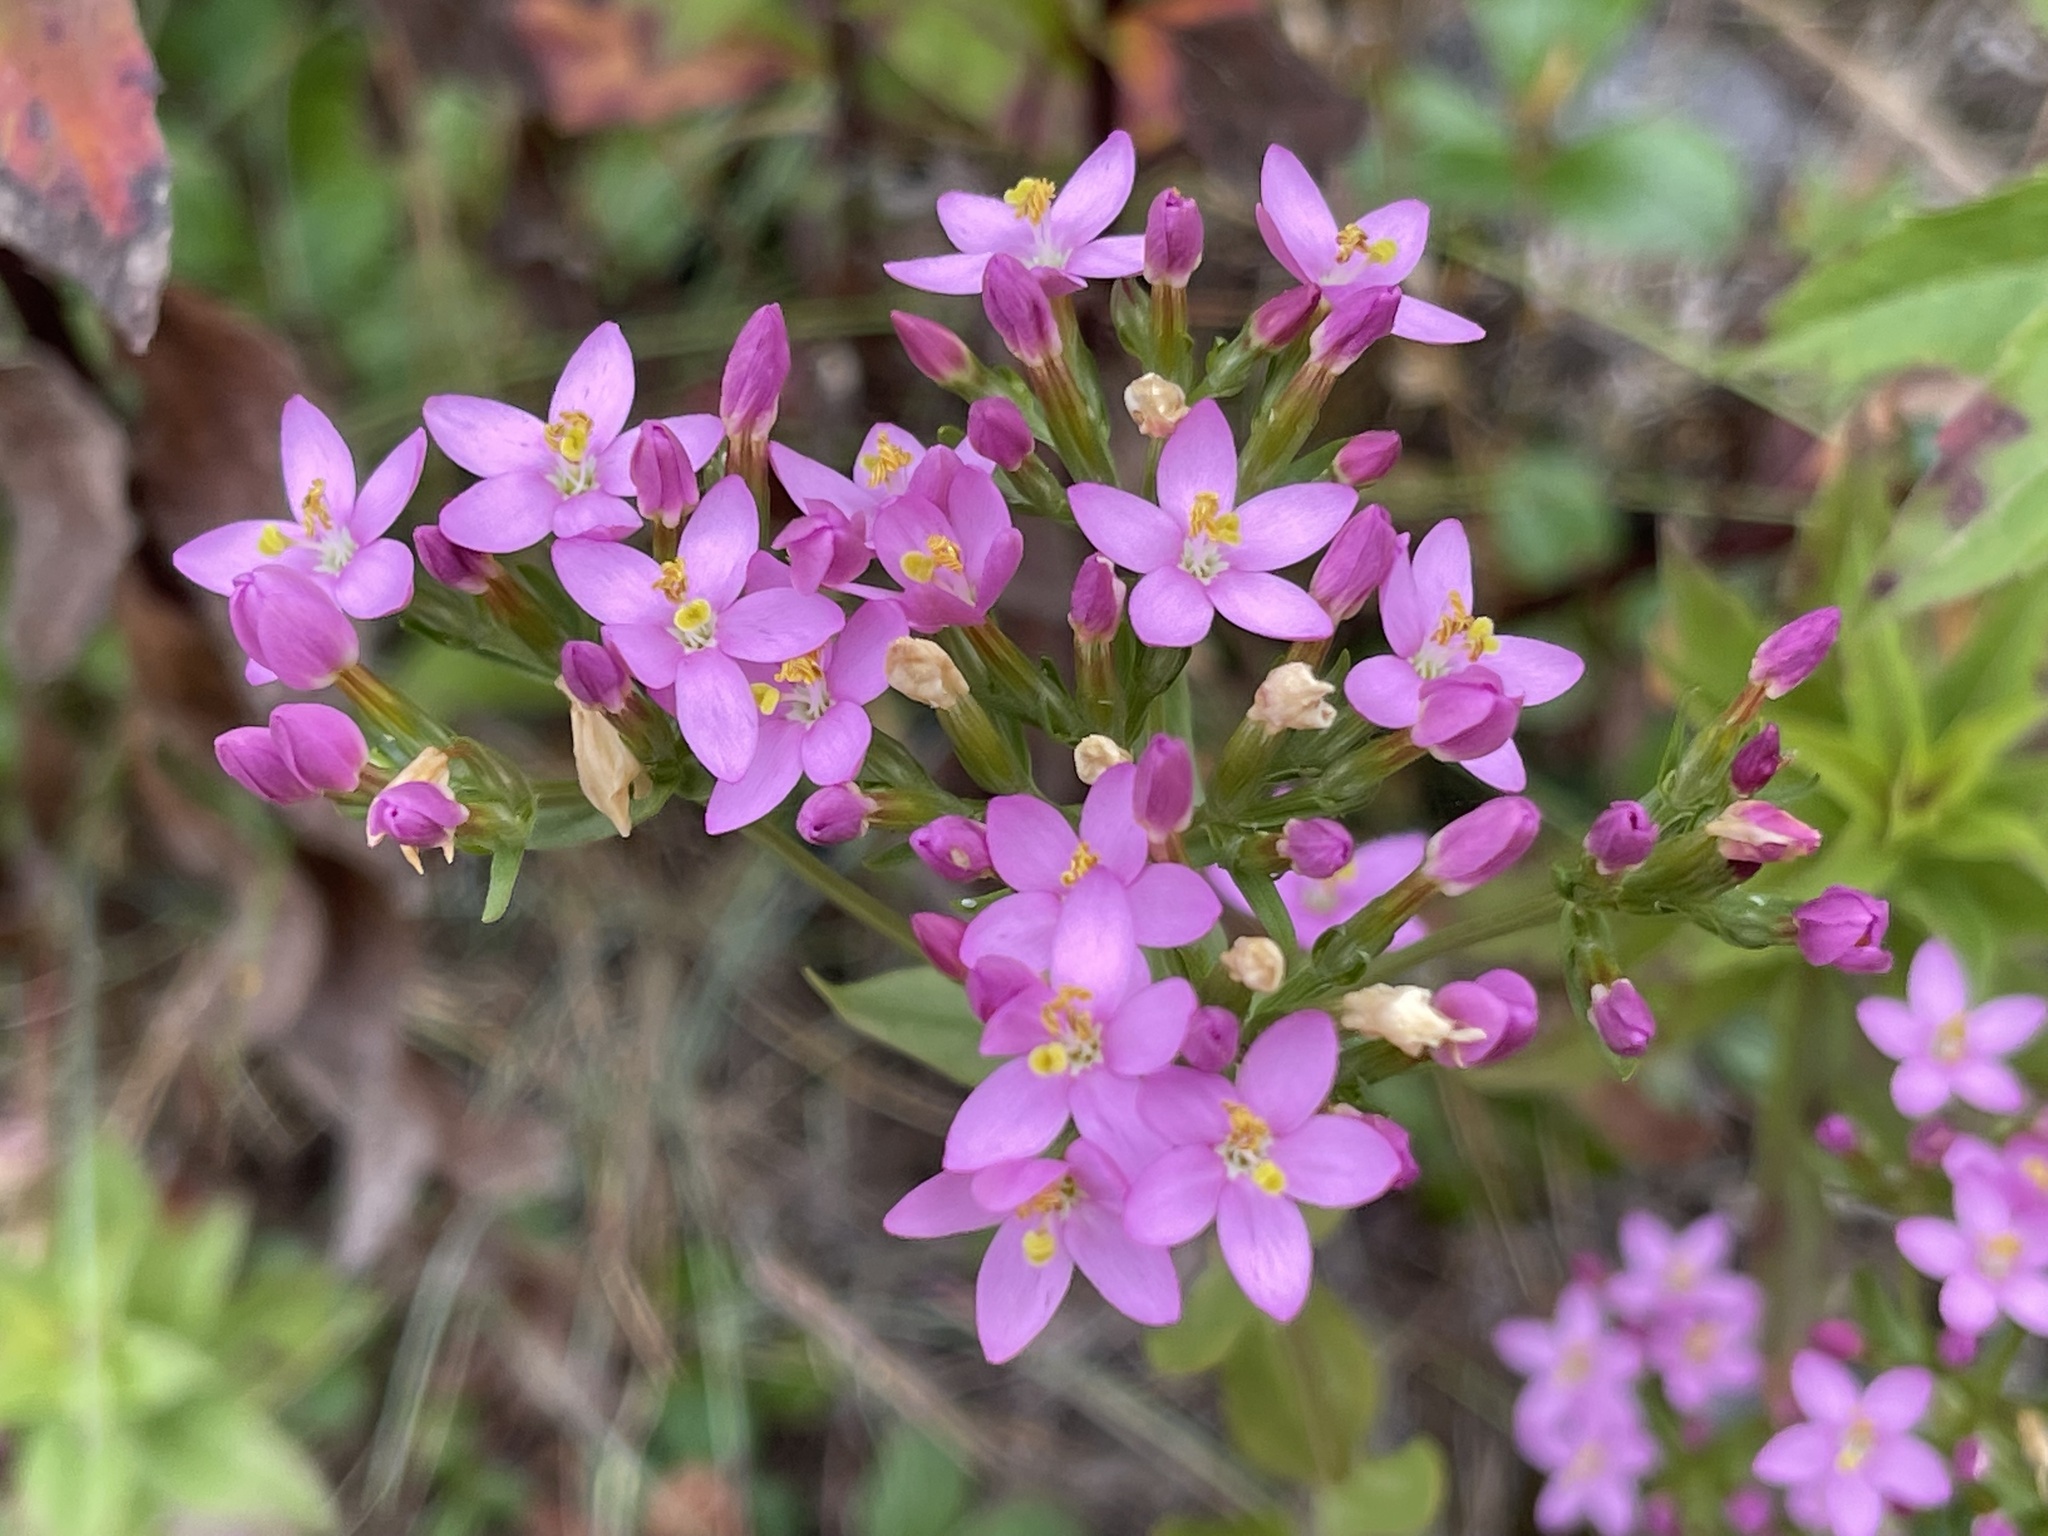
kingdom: Plantae
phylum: Tracheophyta
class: Magnoliopsida
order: Gentianales
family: Gentianaceae
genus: Centaurium
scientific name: Centaurium erythraea
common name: Common centaury
